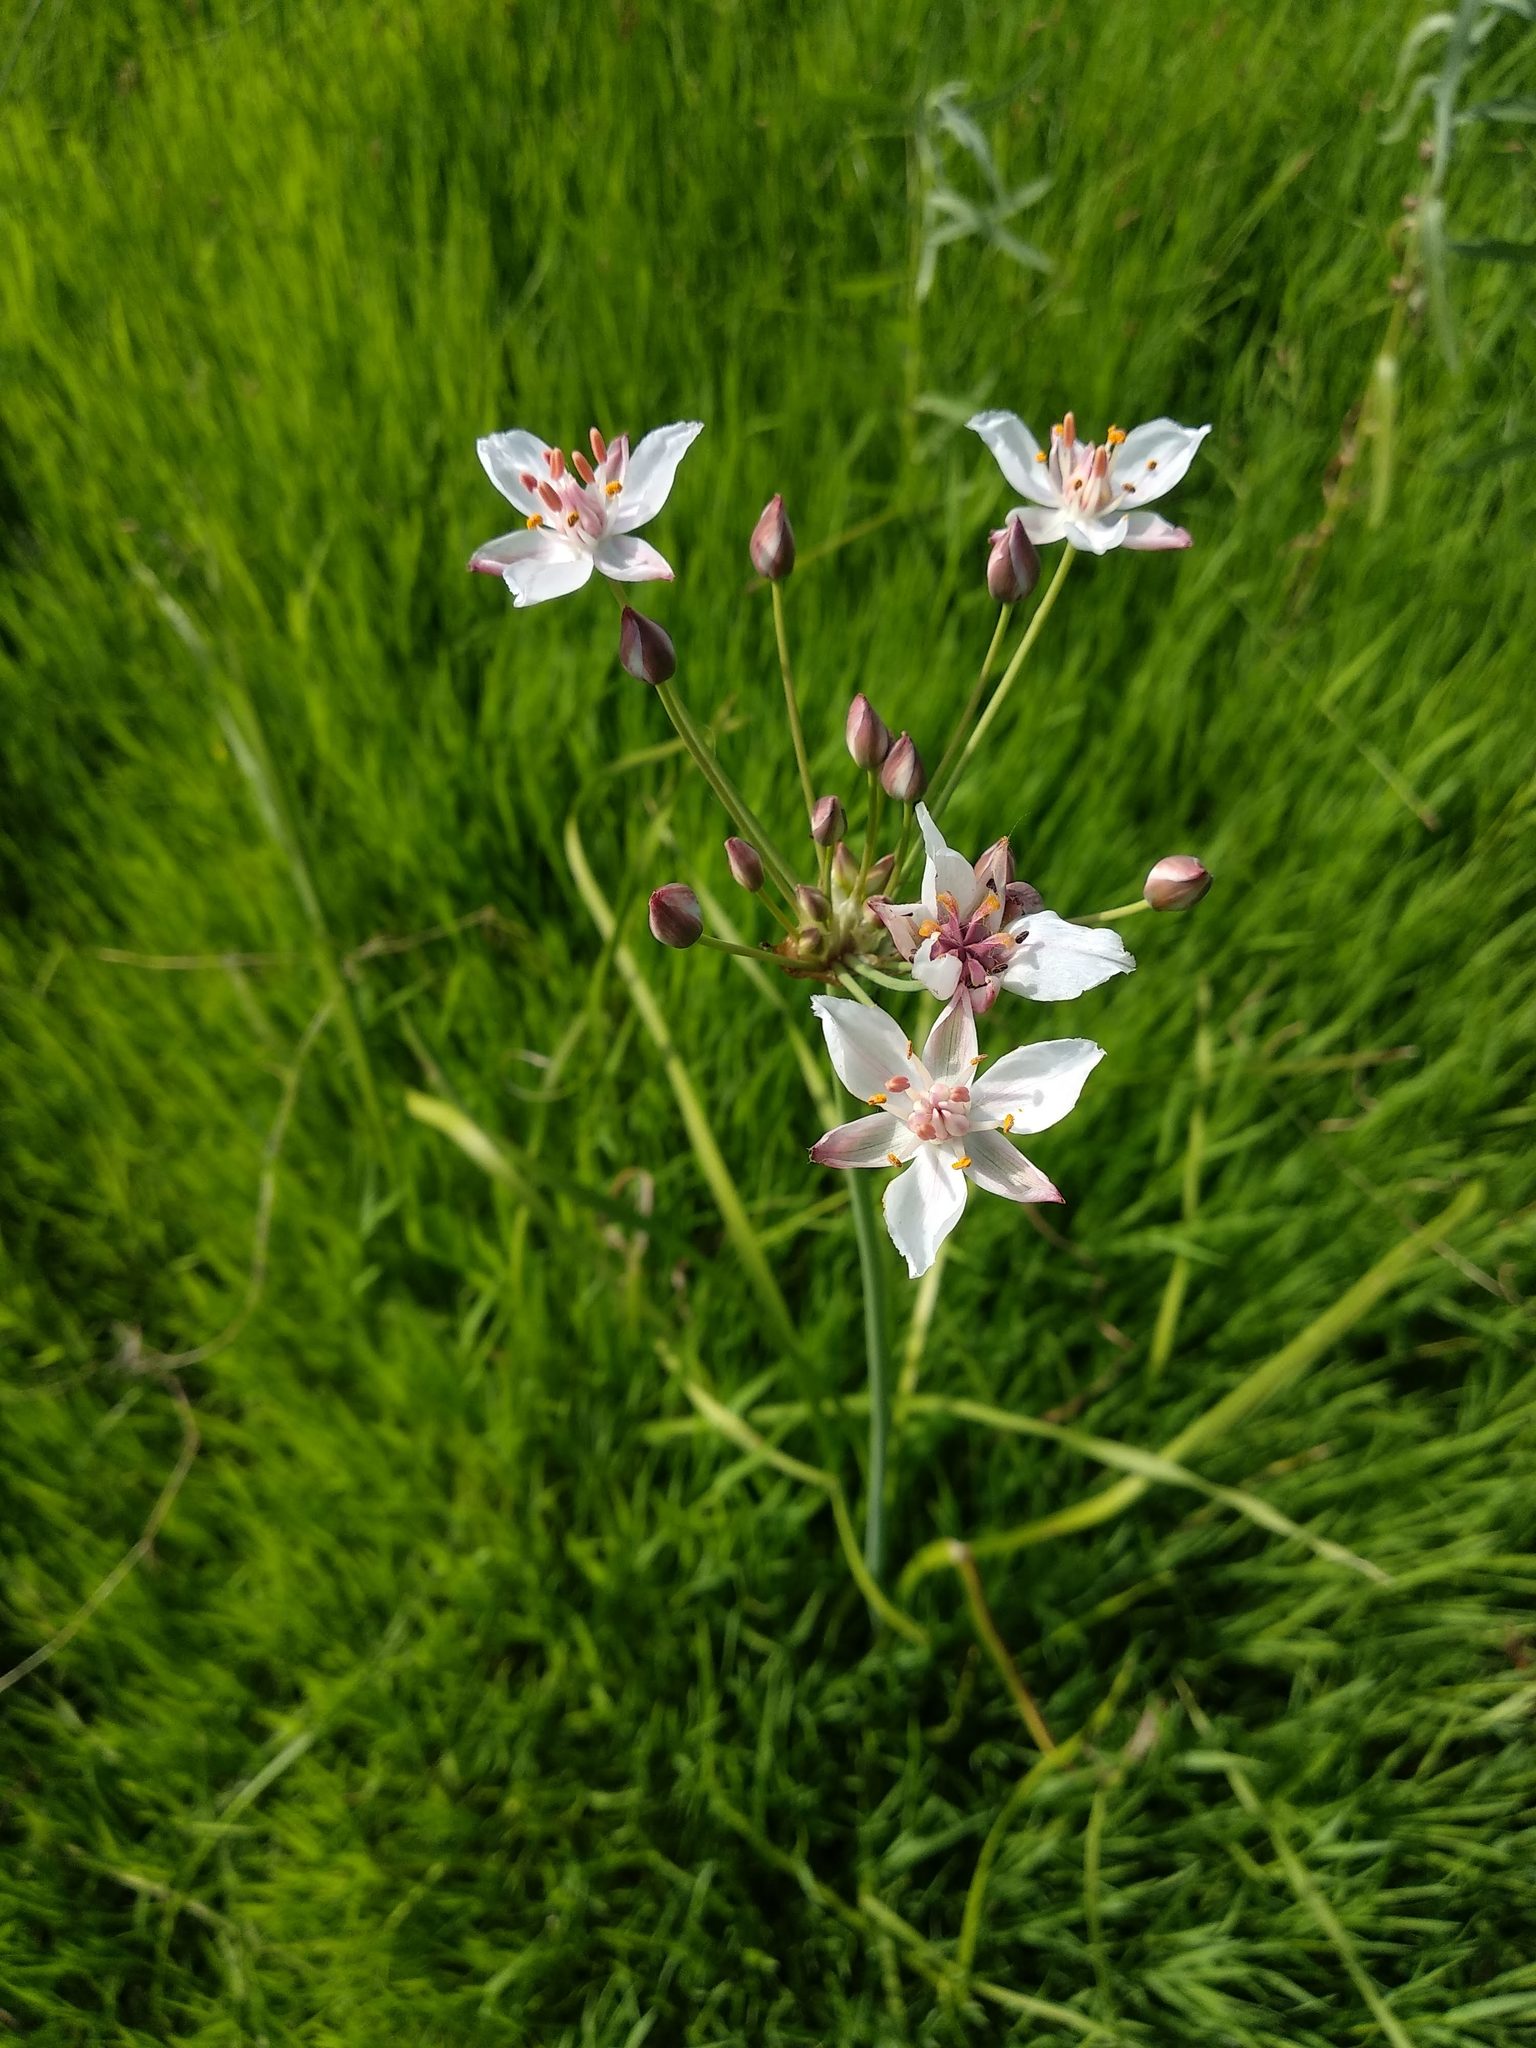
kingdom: Plantae
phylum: Tracheophyta
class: Liliopsida
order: Alismatales
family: Butomaceae
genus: Butomus
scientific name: Butomus umbellatus
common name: Flowering-rush
